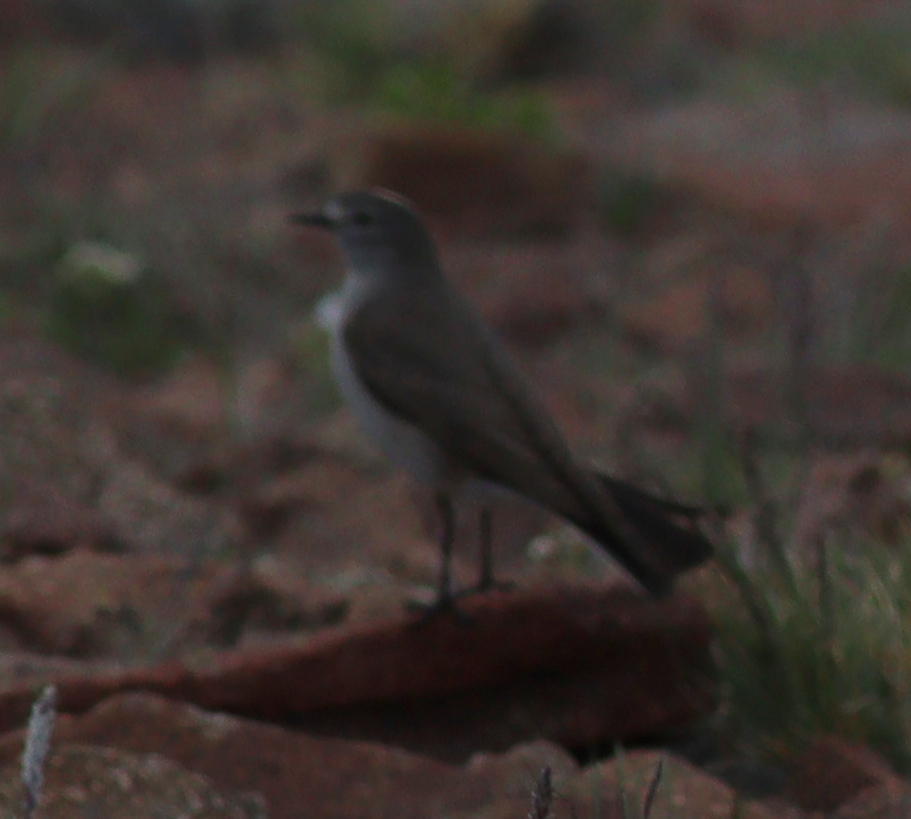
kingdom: Animalia
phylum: Chordata
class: Aves
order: Passeriformes
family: Tyrannidae
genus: Muscisaxicola
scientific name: Muscisaxicola flavinucha
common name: Ochre-naped ground tyrant
